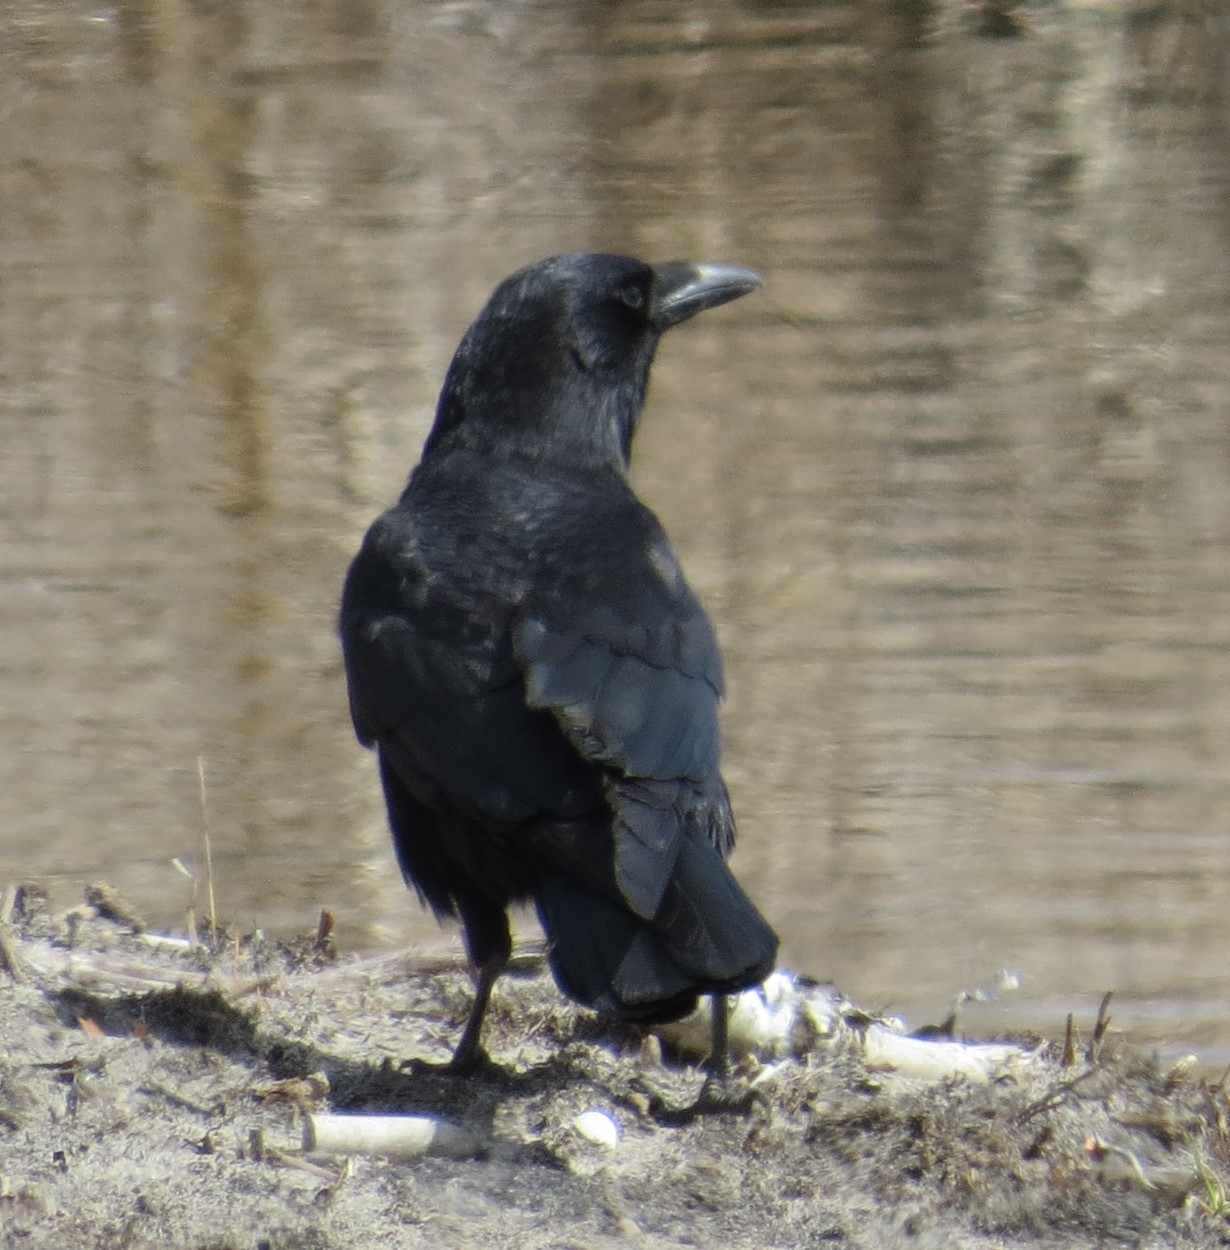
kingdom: Animalia
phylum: Chordata
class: Aves
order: Passeriformes
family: Corvidae
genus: Corvus
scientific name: Corvus brachyrhynchos
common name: American crow
